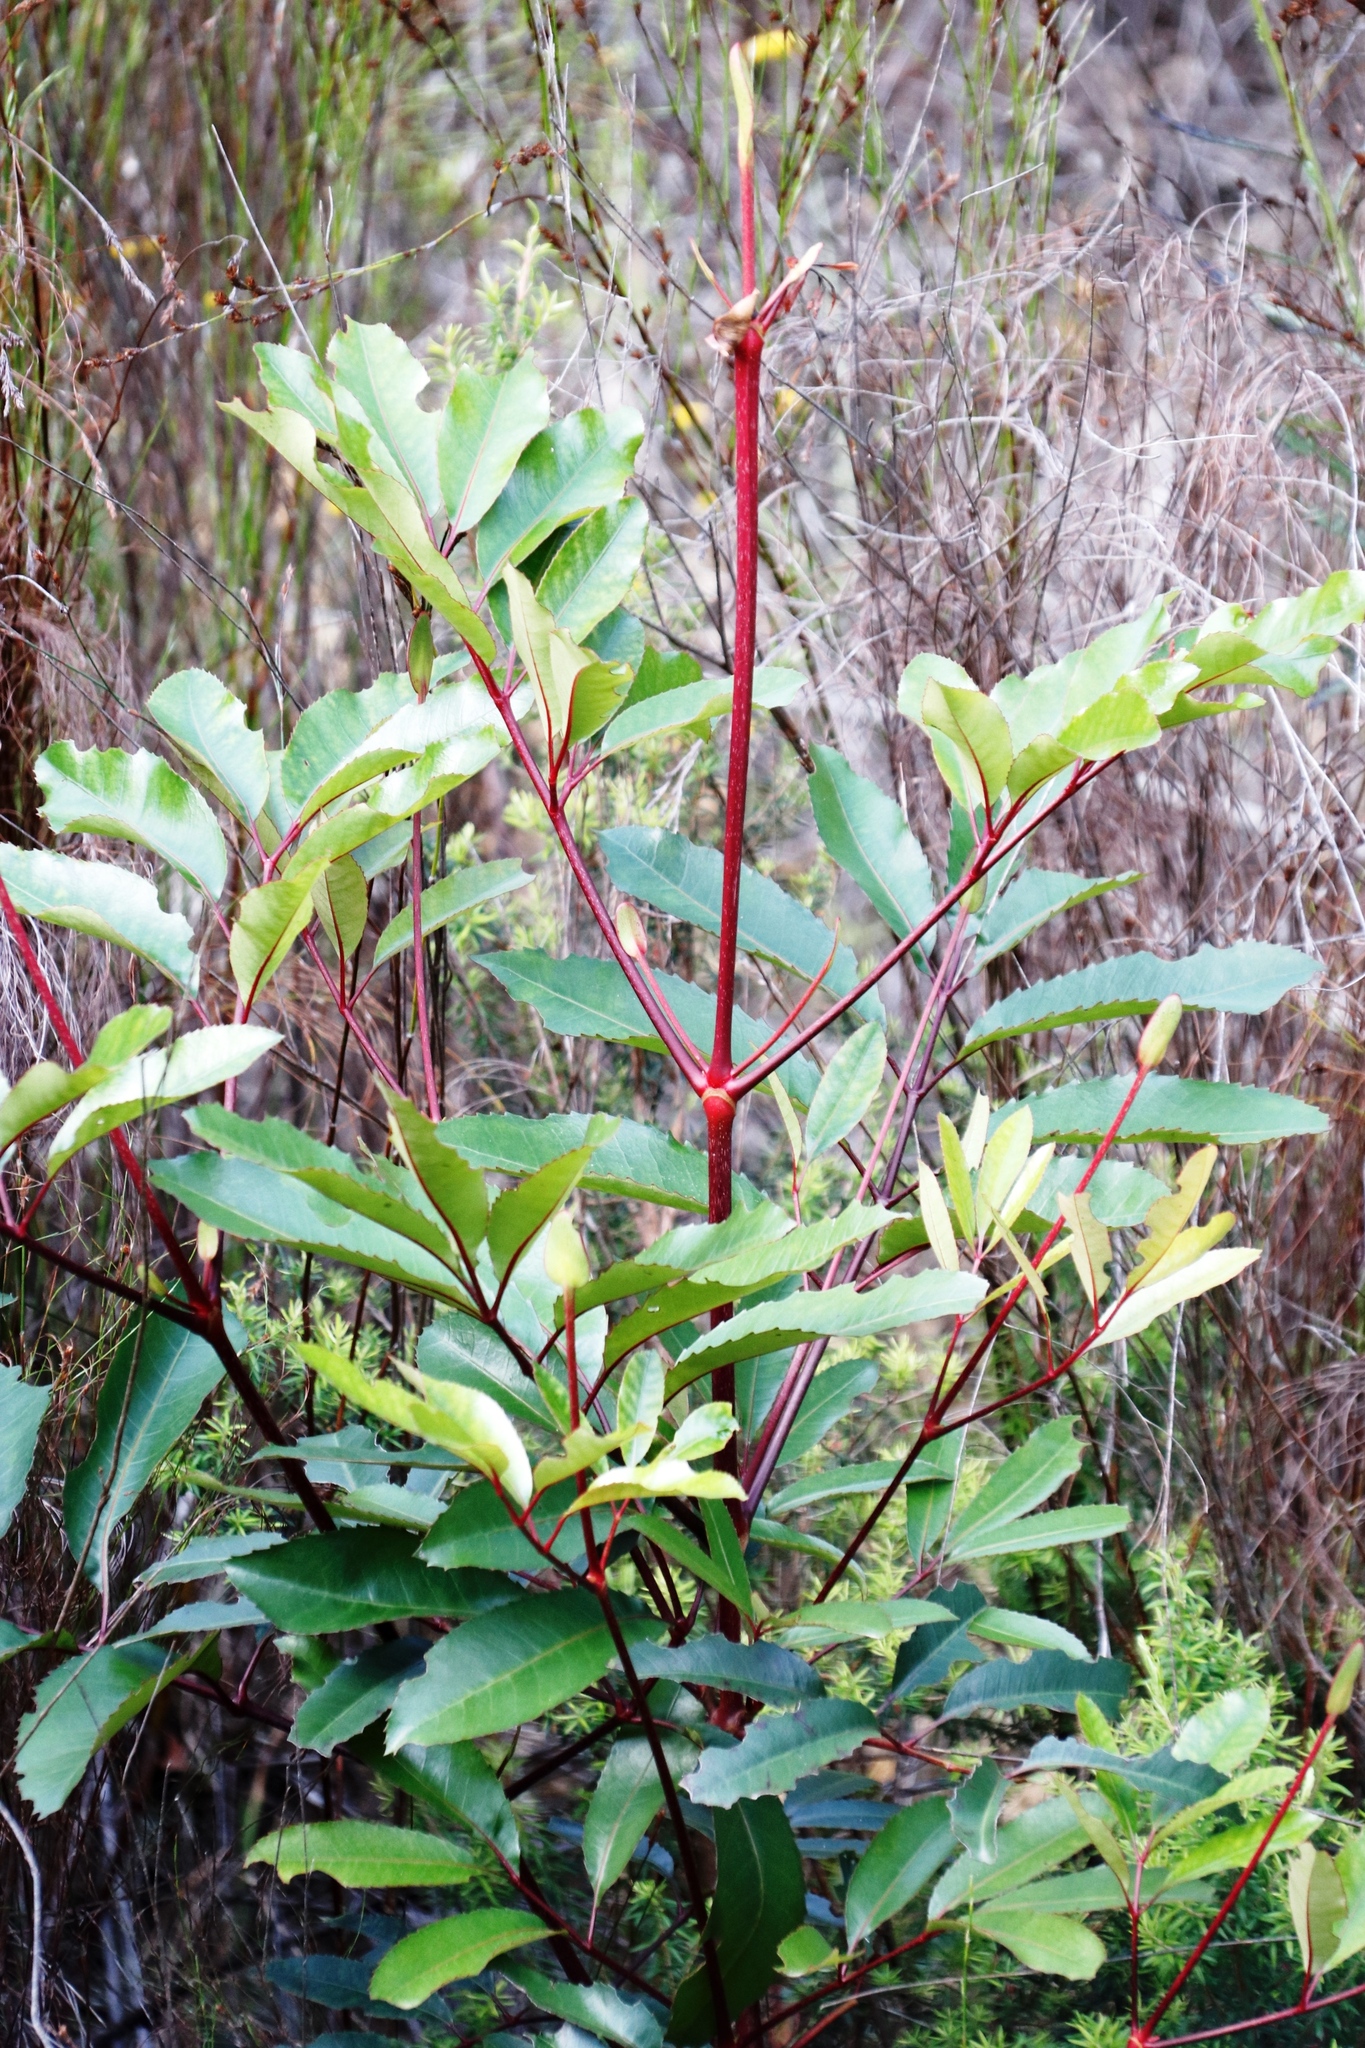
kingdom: Plantae
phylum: Tracheophyta
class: Magnoliopsida
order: Oxalidales
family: Cunoniaceae
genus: Cunonia
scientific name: Cunonia capensis
